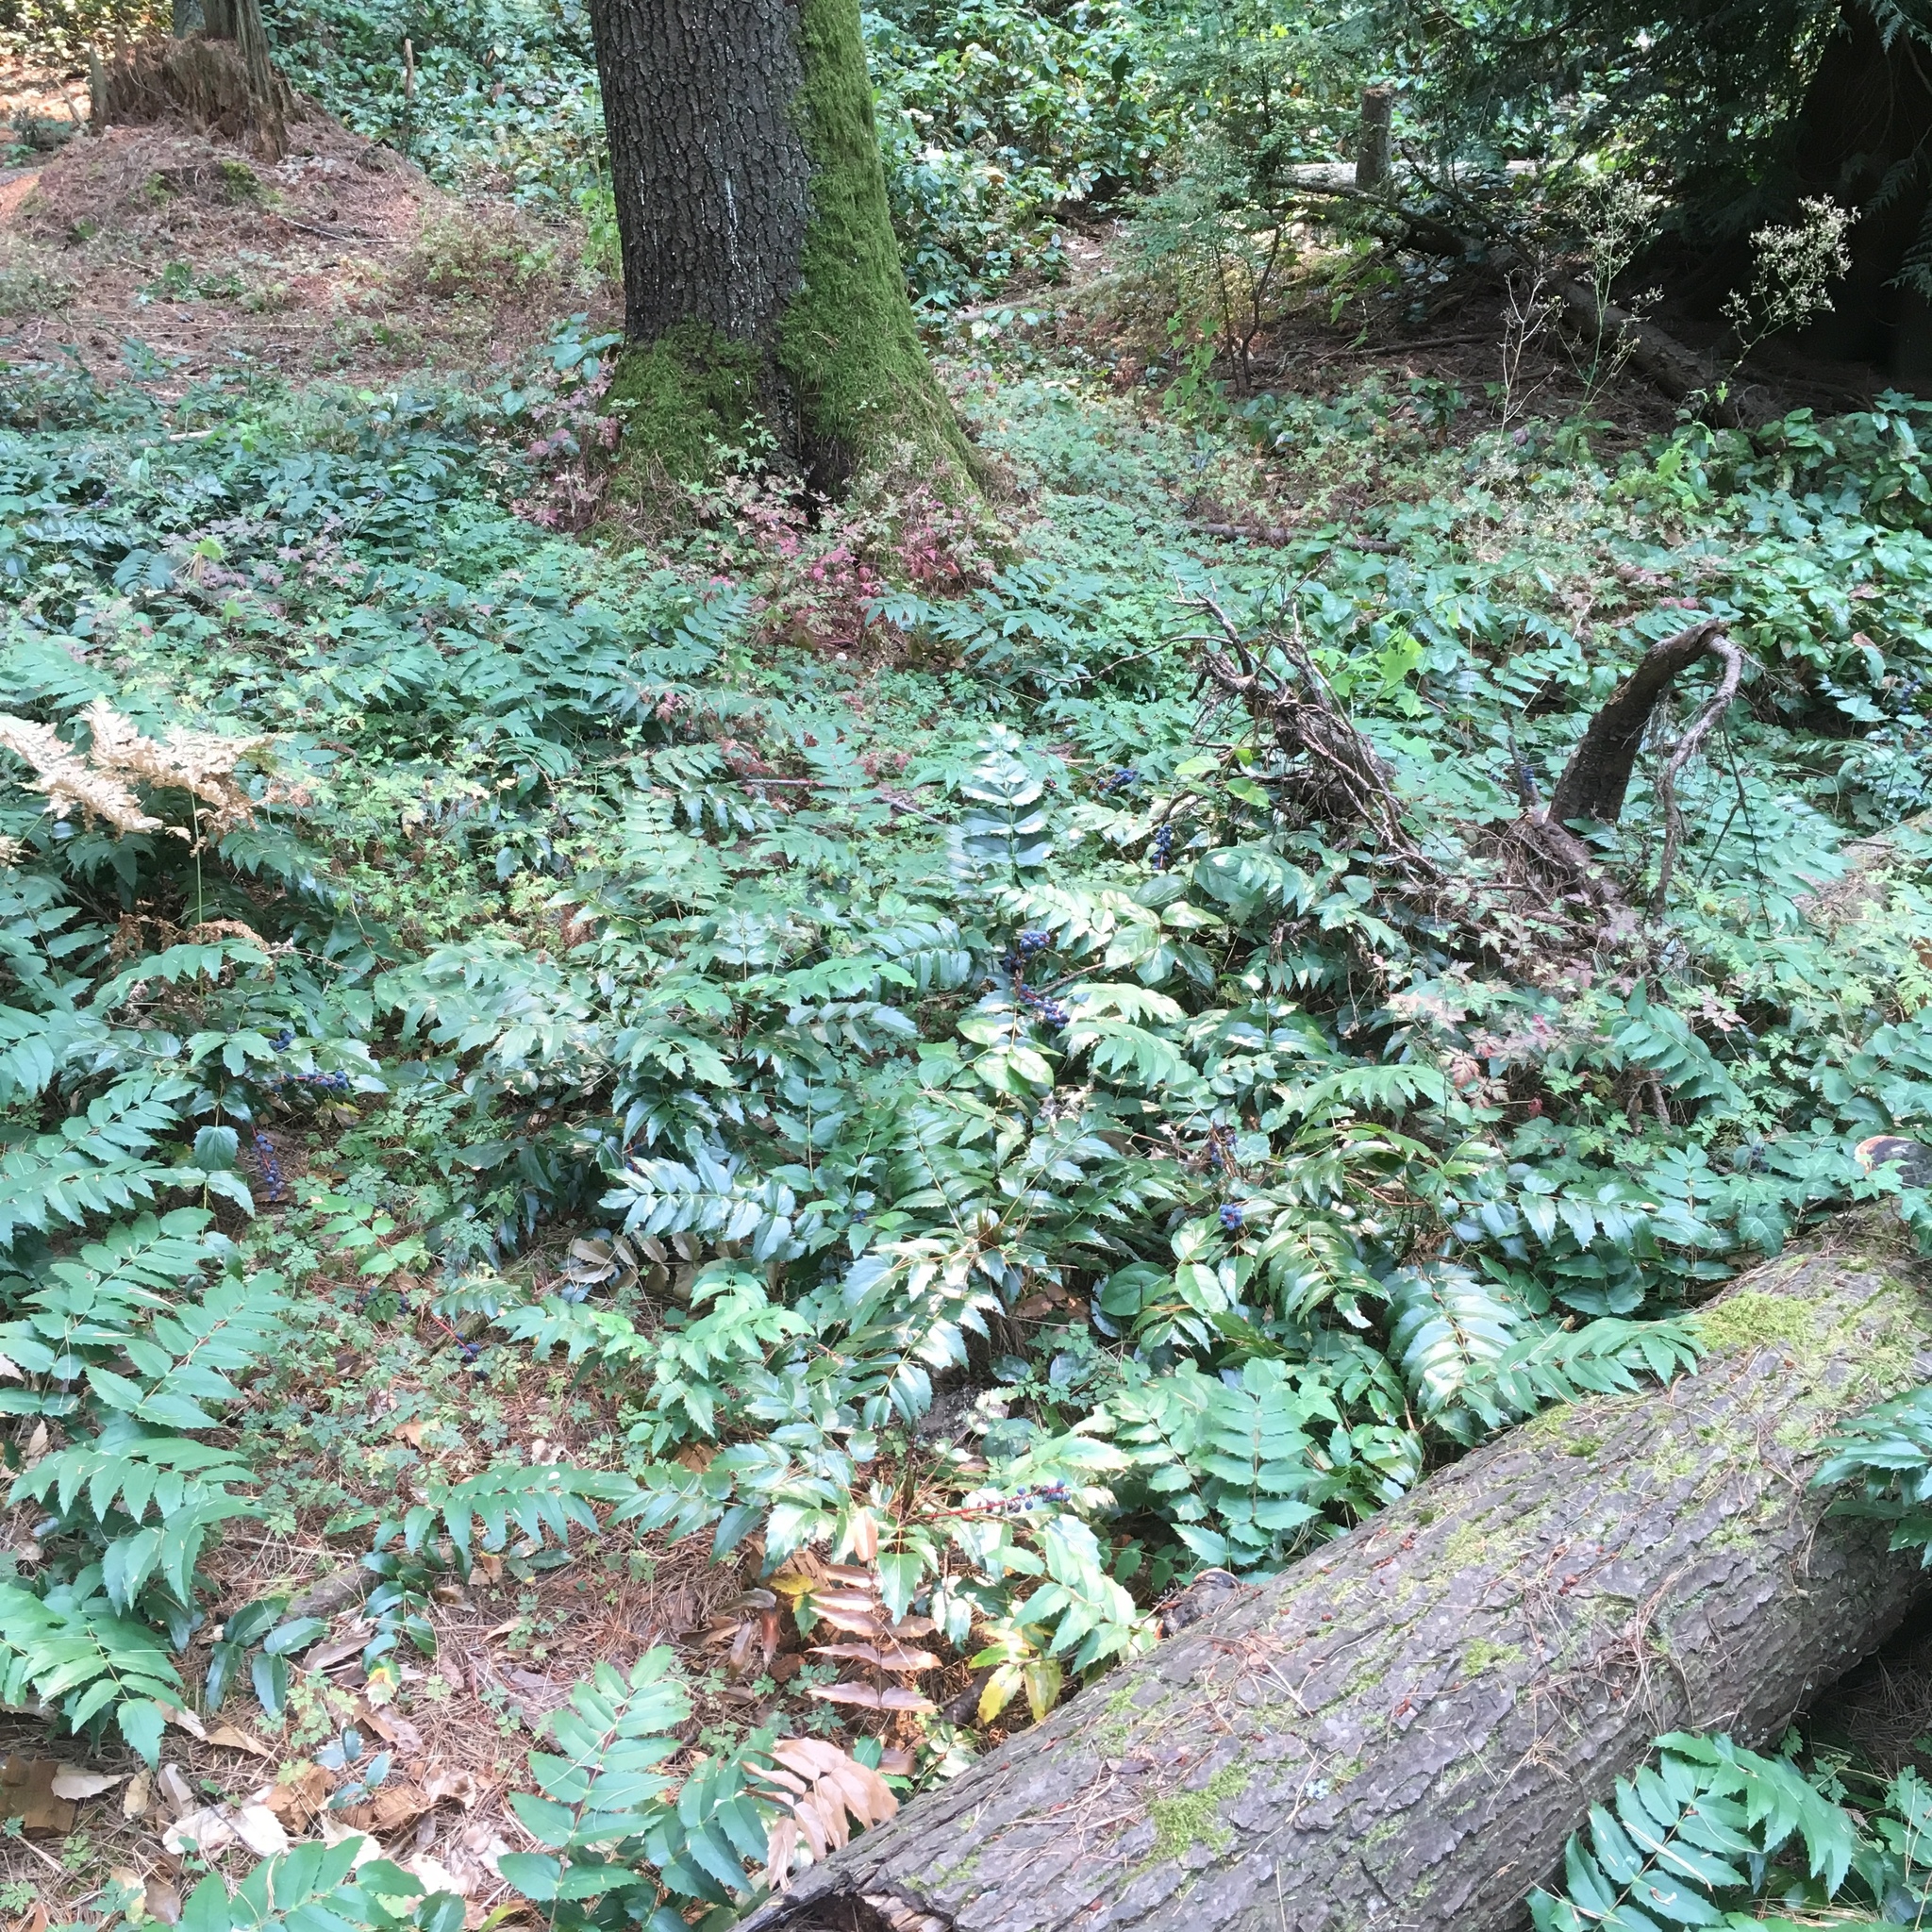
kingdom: Plantae
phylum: Tracheophyta
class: Magnoliopsida
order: Ranunculales
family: Berberidaceae
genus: Mahonia
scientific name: Mahonia nervosa
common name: Cascade oregon-grape
